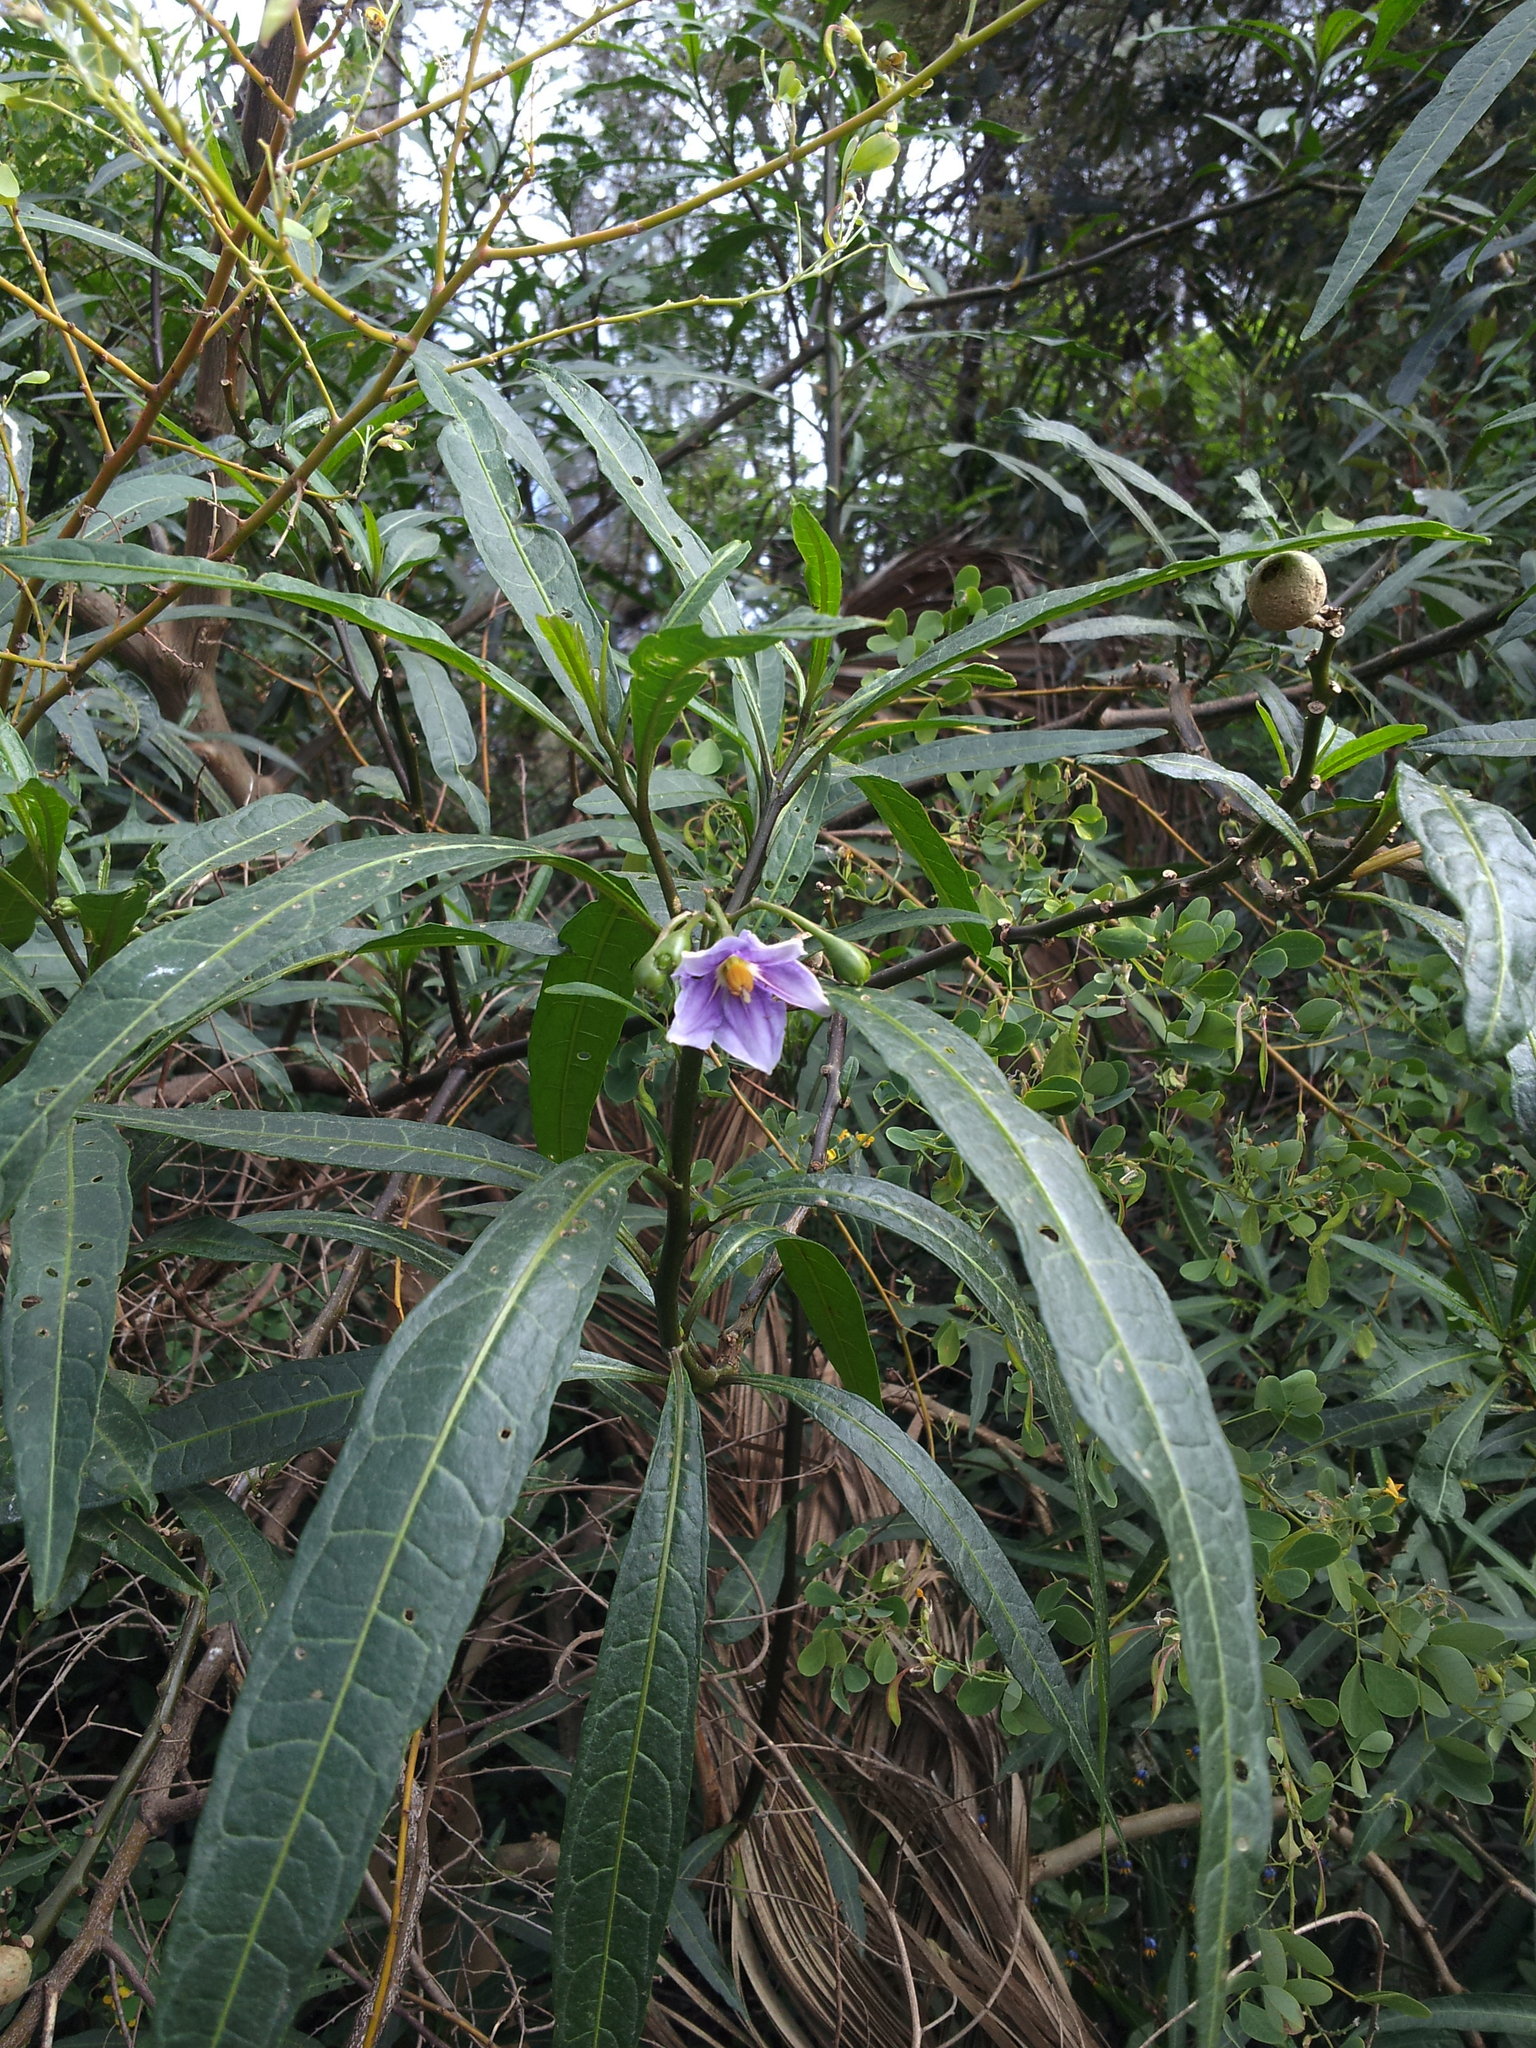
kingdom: Plantae
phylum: Tracheophyta
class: Magnoliopsida
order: Solanales
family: Solanaceae
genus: Solanum
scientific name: Solanum aviculare
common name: New zealand nightshade
